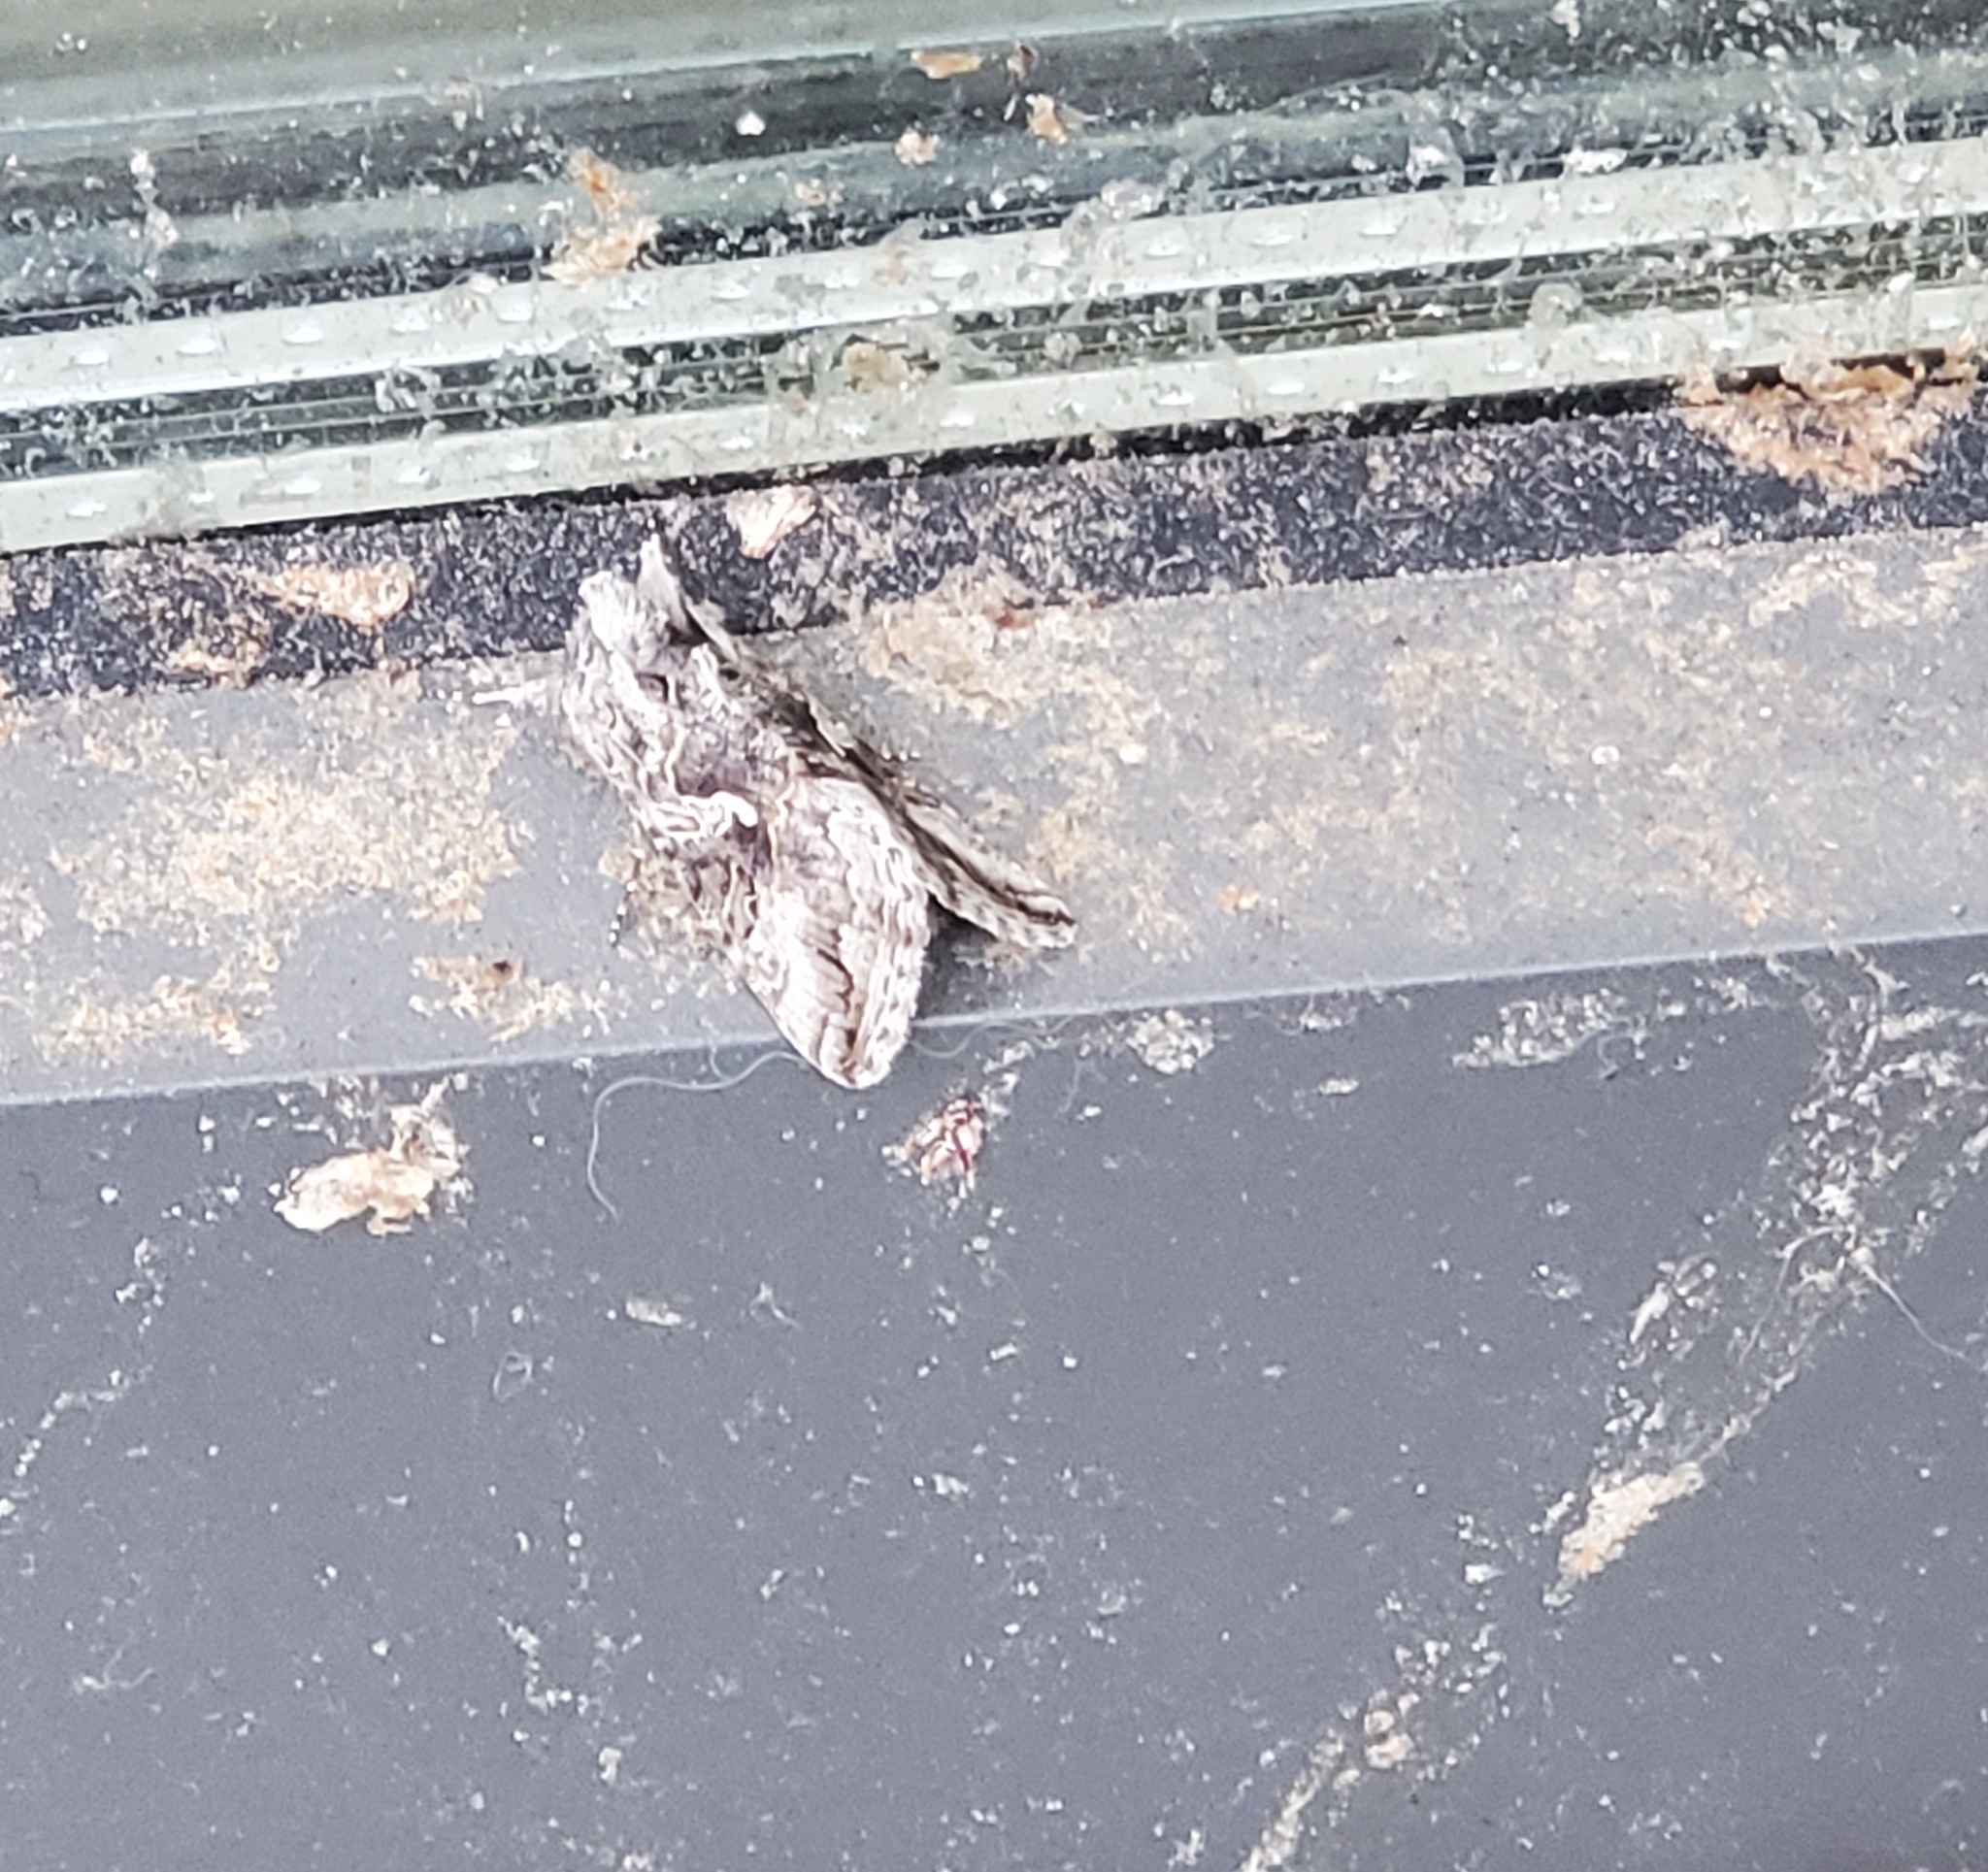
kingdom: Animalia
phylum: Arthropoda
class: Insecta
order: Lepidoptera
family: Noctuidae
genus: Autographa
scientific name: Autographa californica
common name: Alfalfa looper
